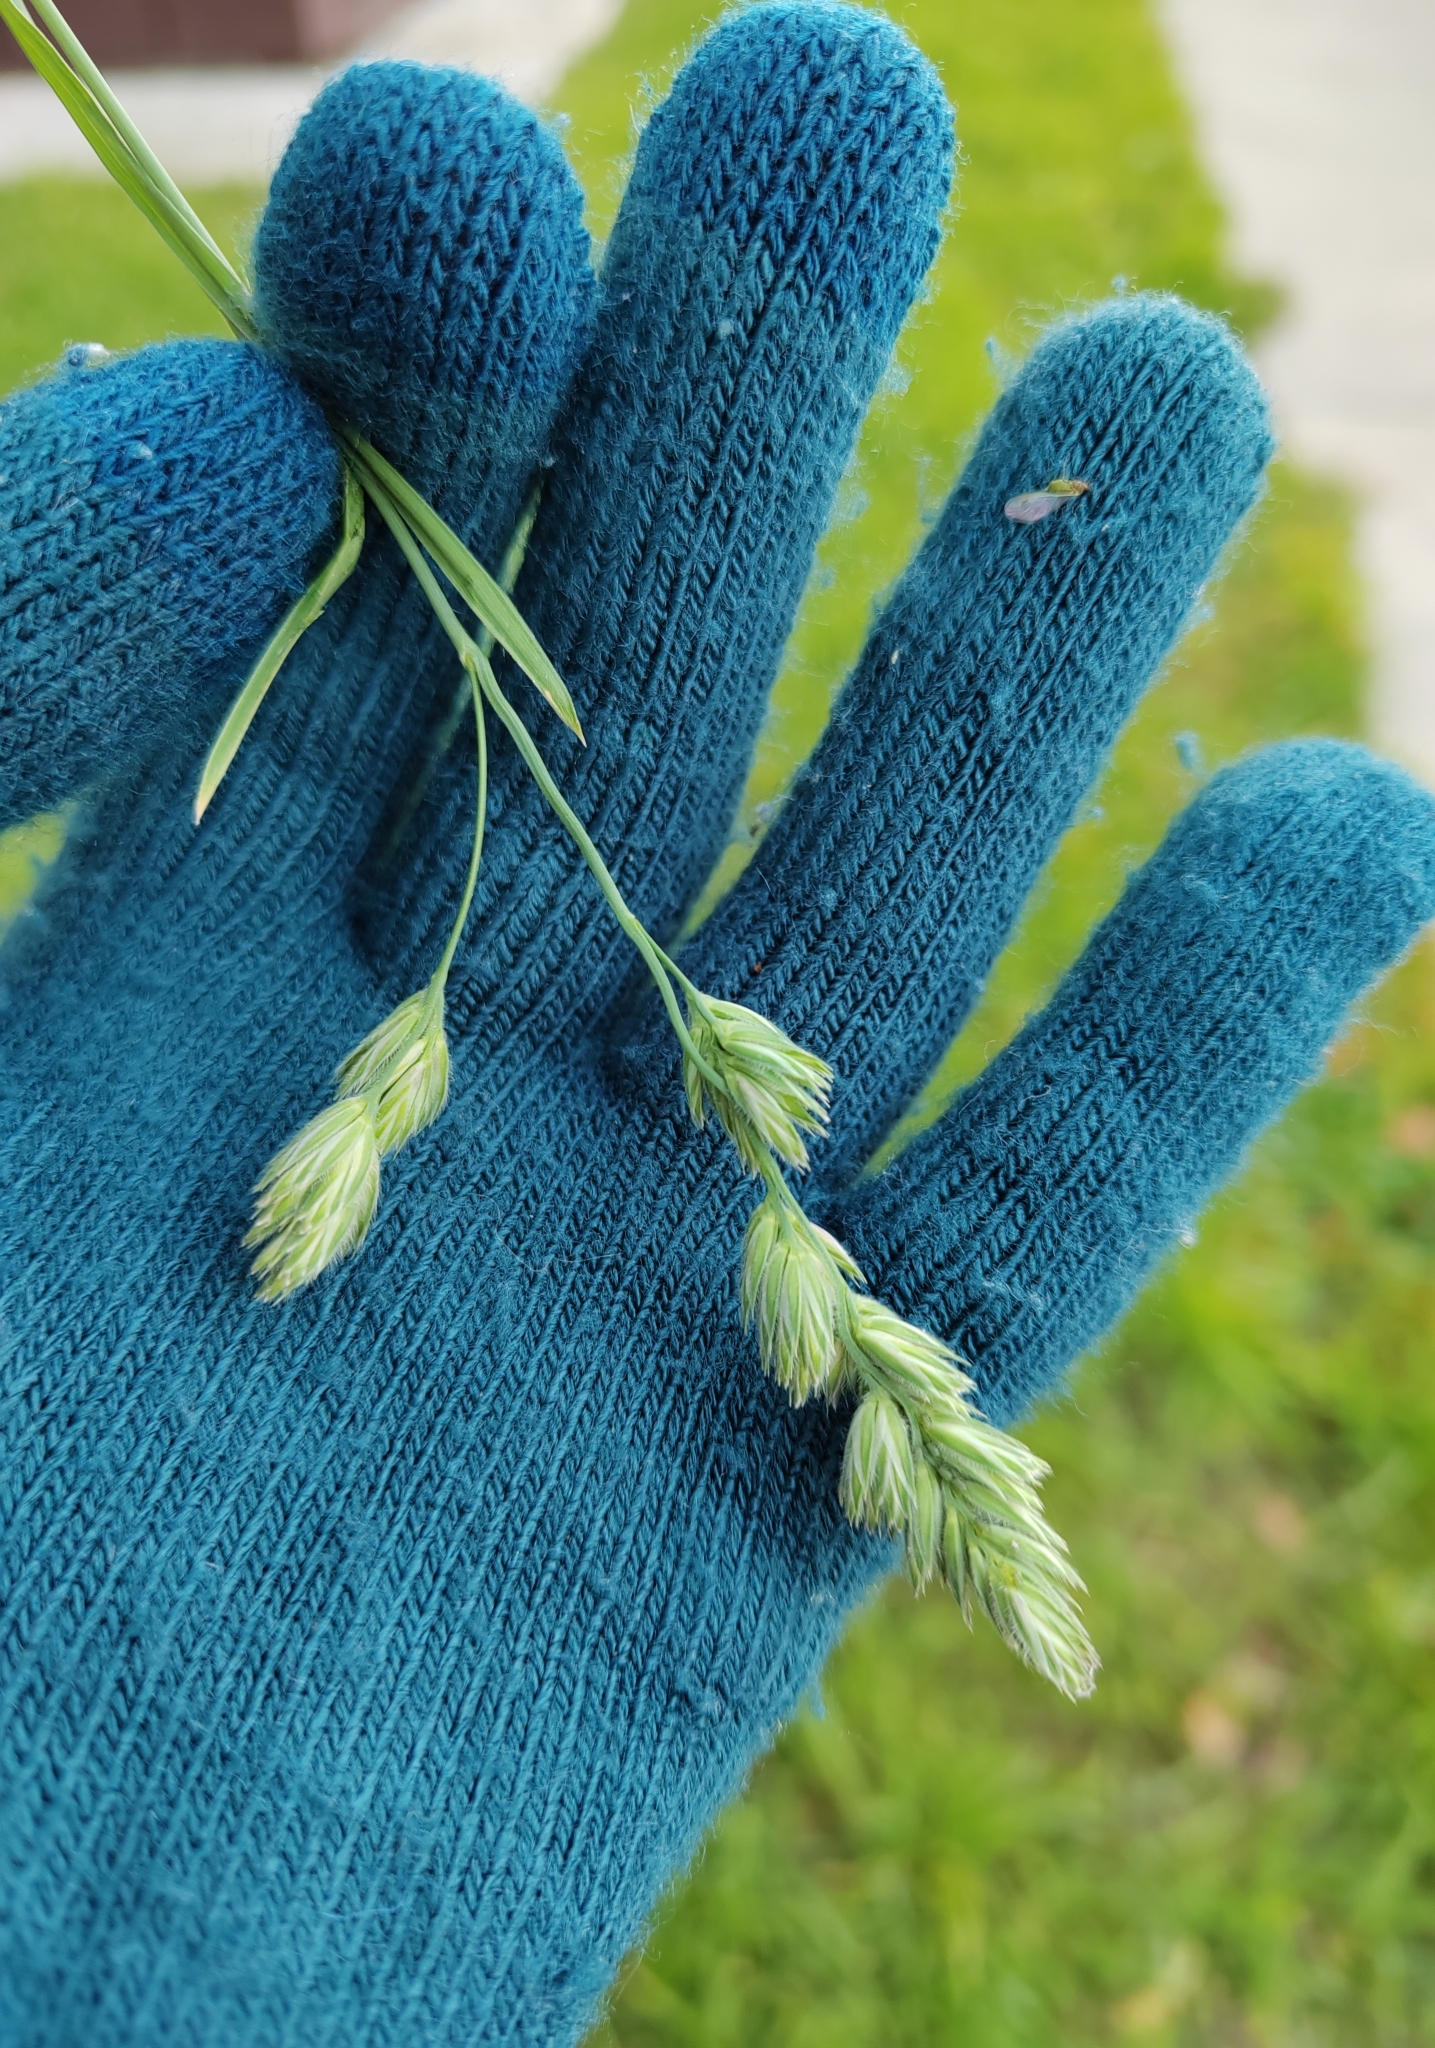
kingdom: Plantae
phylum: Tracheophyta
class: Liliopsida
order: Poales
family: Poaceae
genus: Dactylis
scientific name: Dactylis glomerata
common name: Orchardgrass
